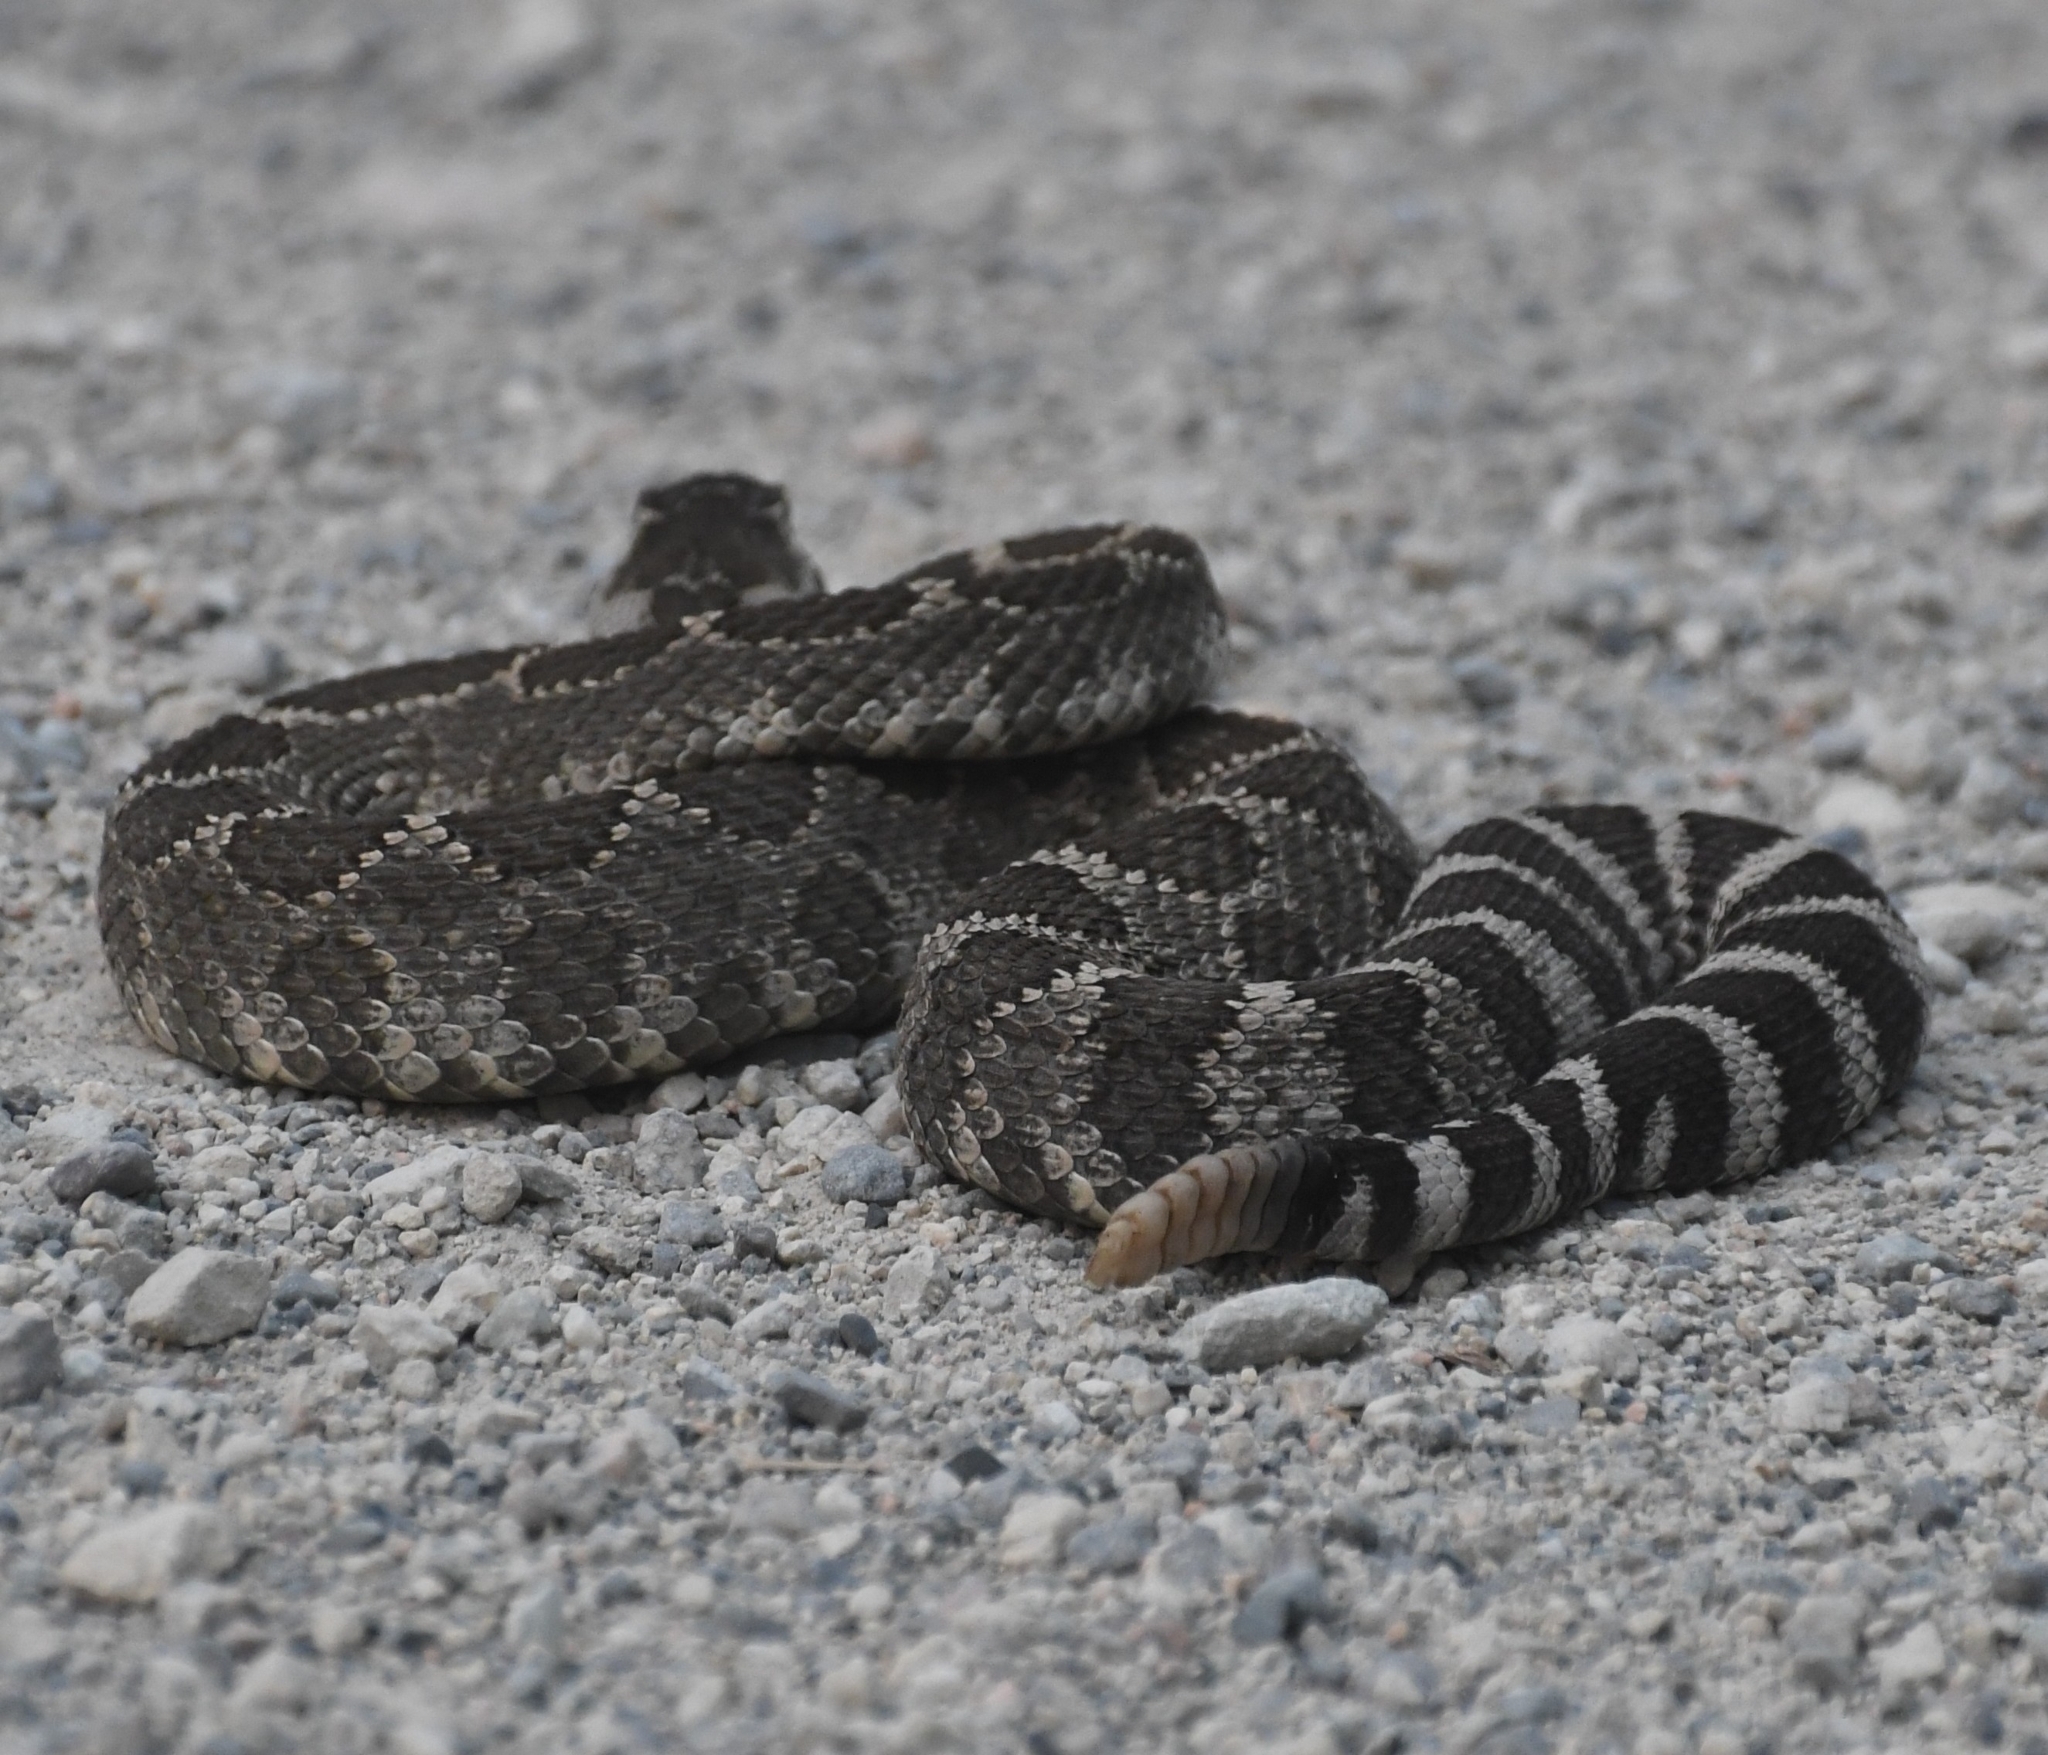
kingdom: Animalia
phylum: Chordata
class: Squamata
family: Viperidae
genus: Crotalus
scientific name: Crotalus oreganus
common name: Abyssus
